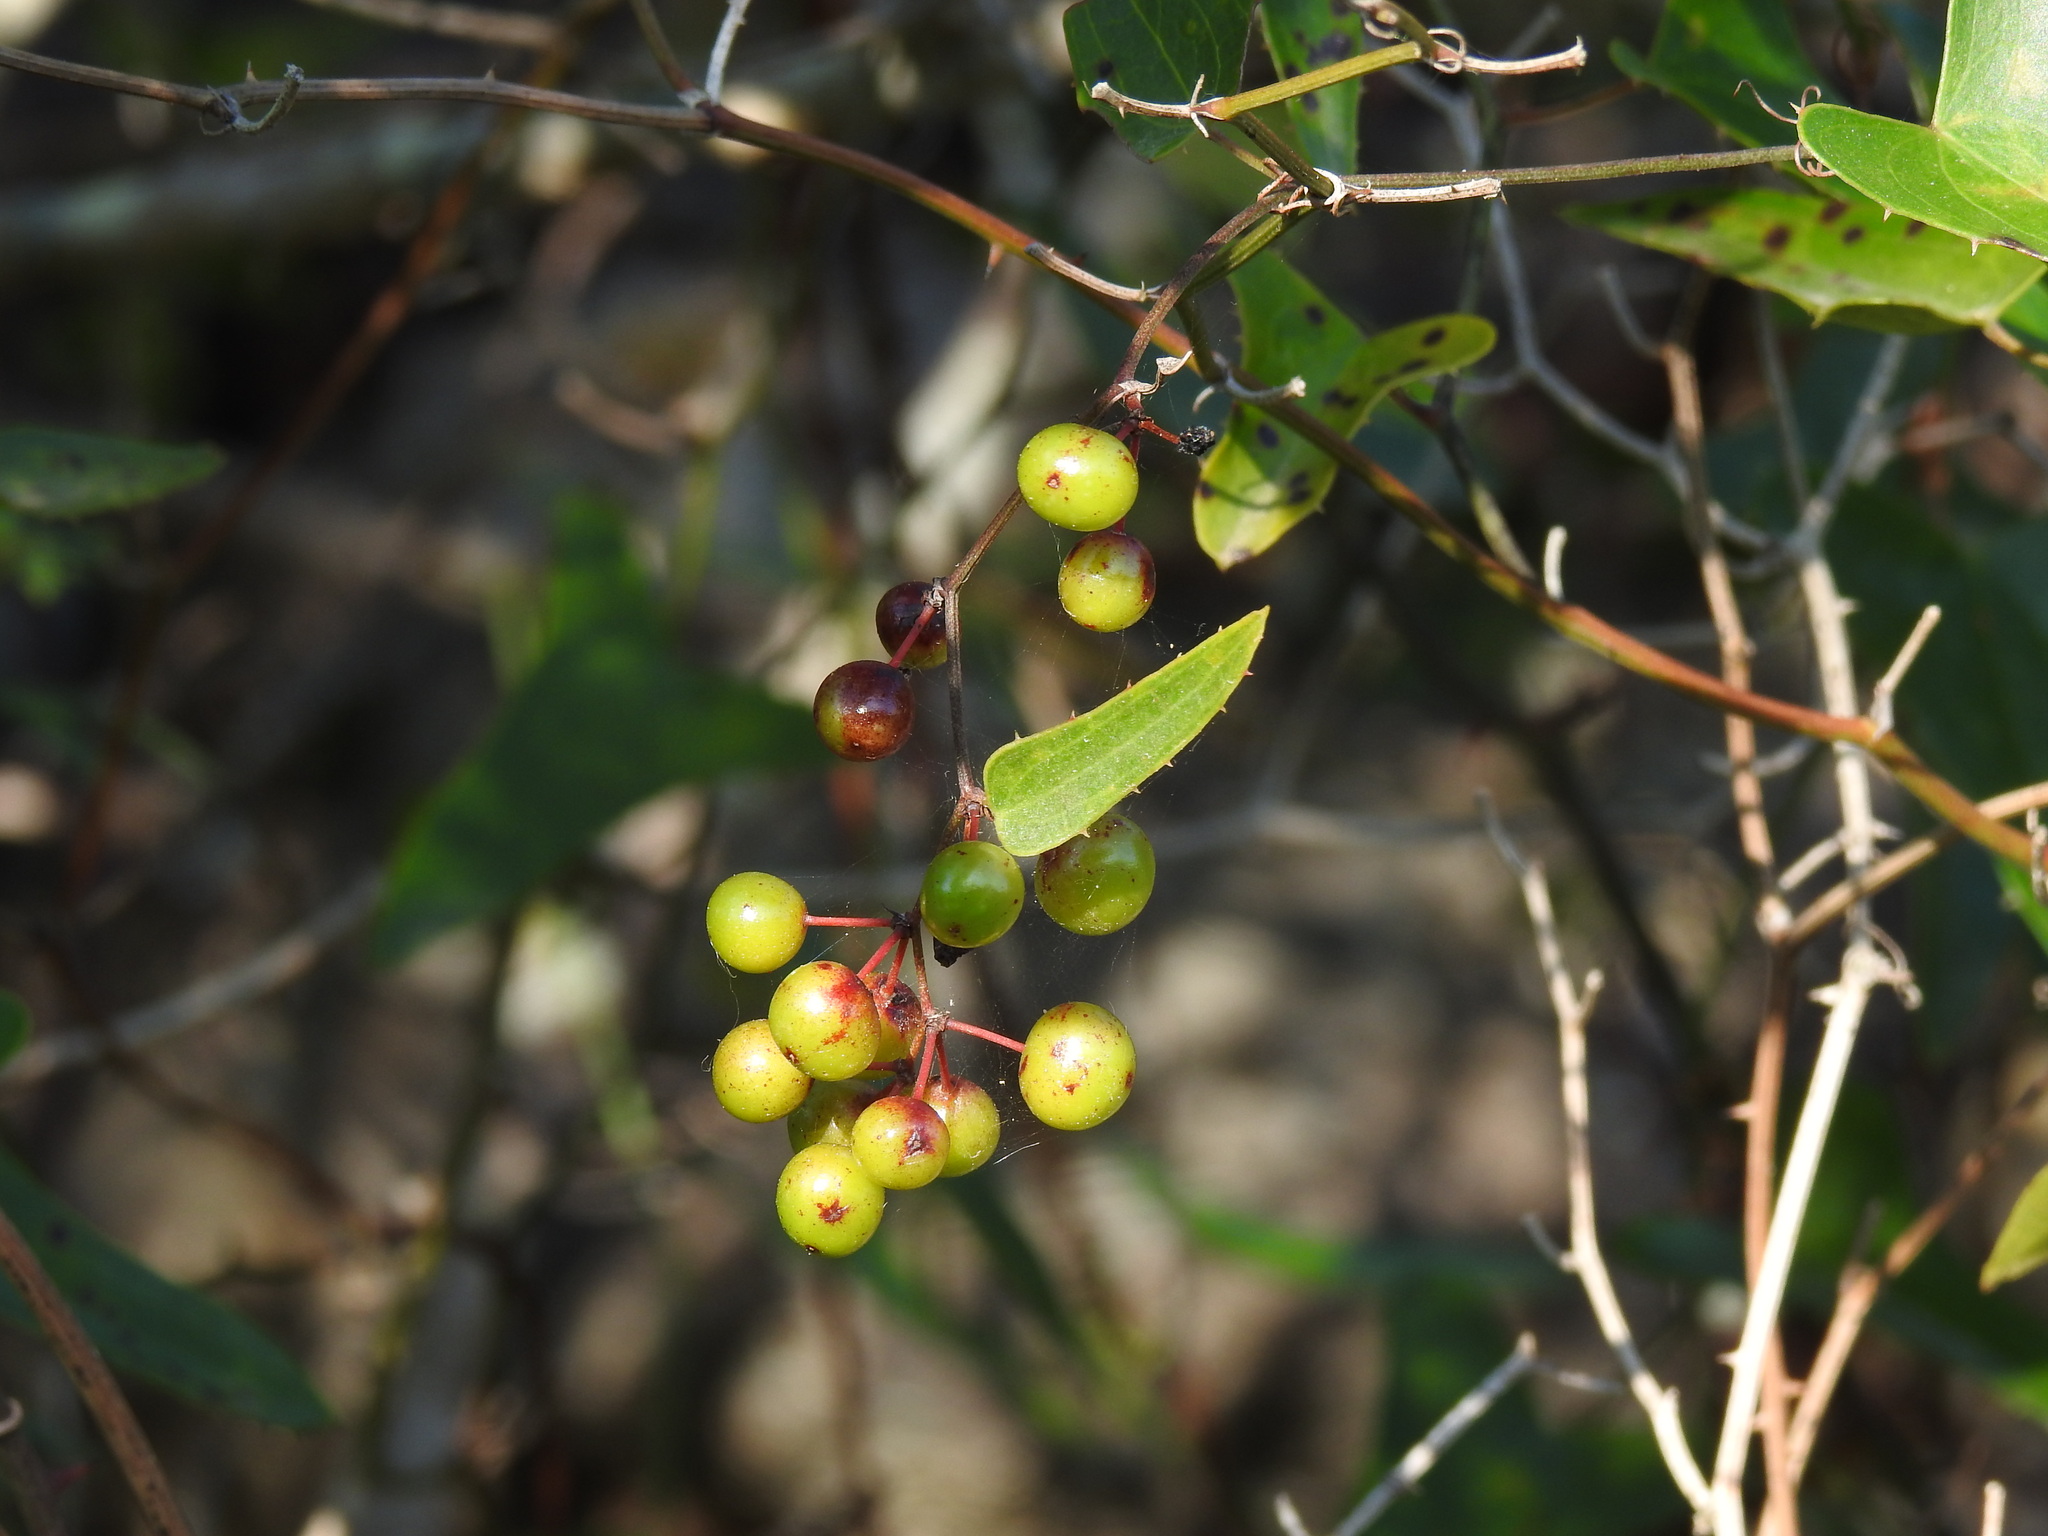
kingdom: Plantae
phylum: Tracheophyta
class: Liliopsida
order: Liliales
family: Smilacaceae
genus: Smilax
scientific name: Smilax aspera
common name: Common smilax
